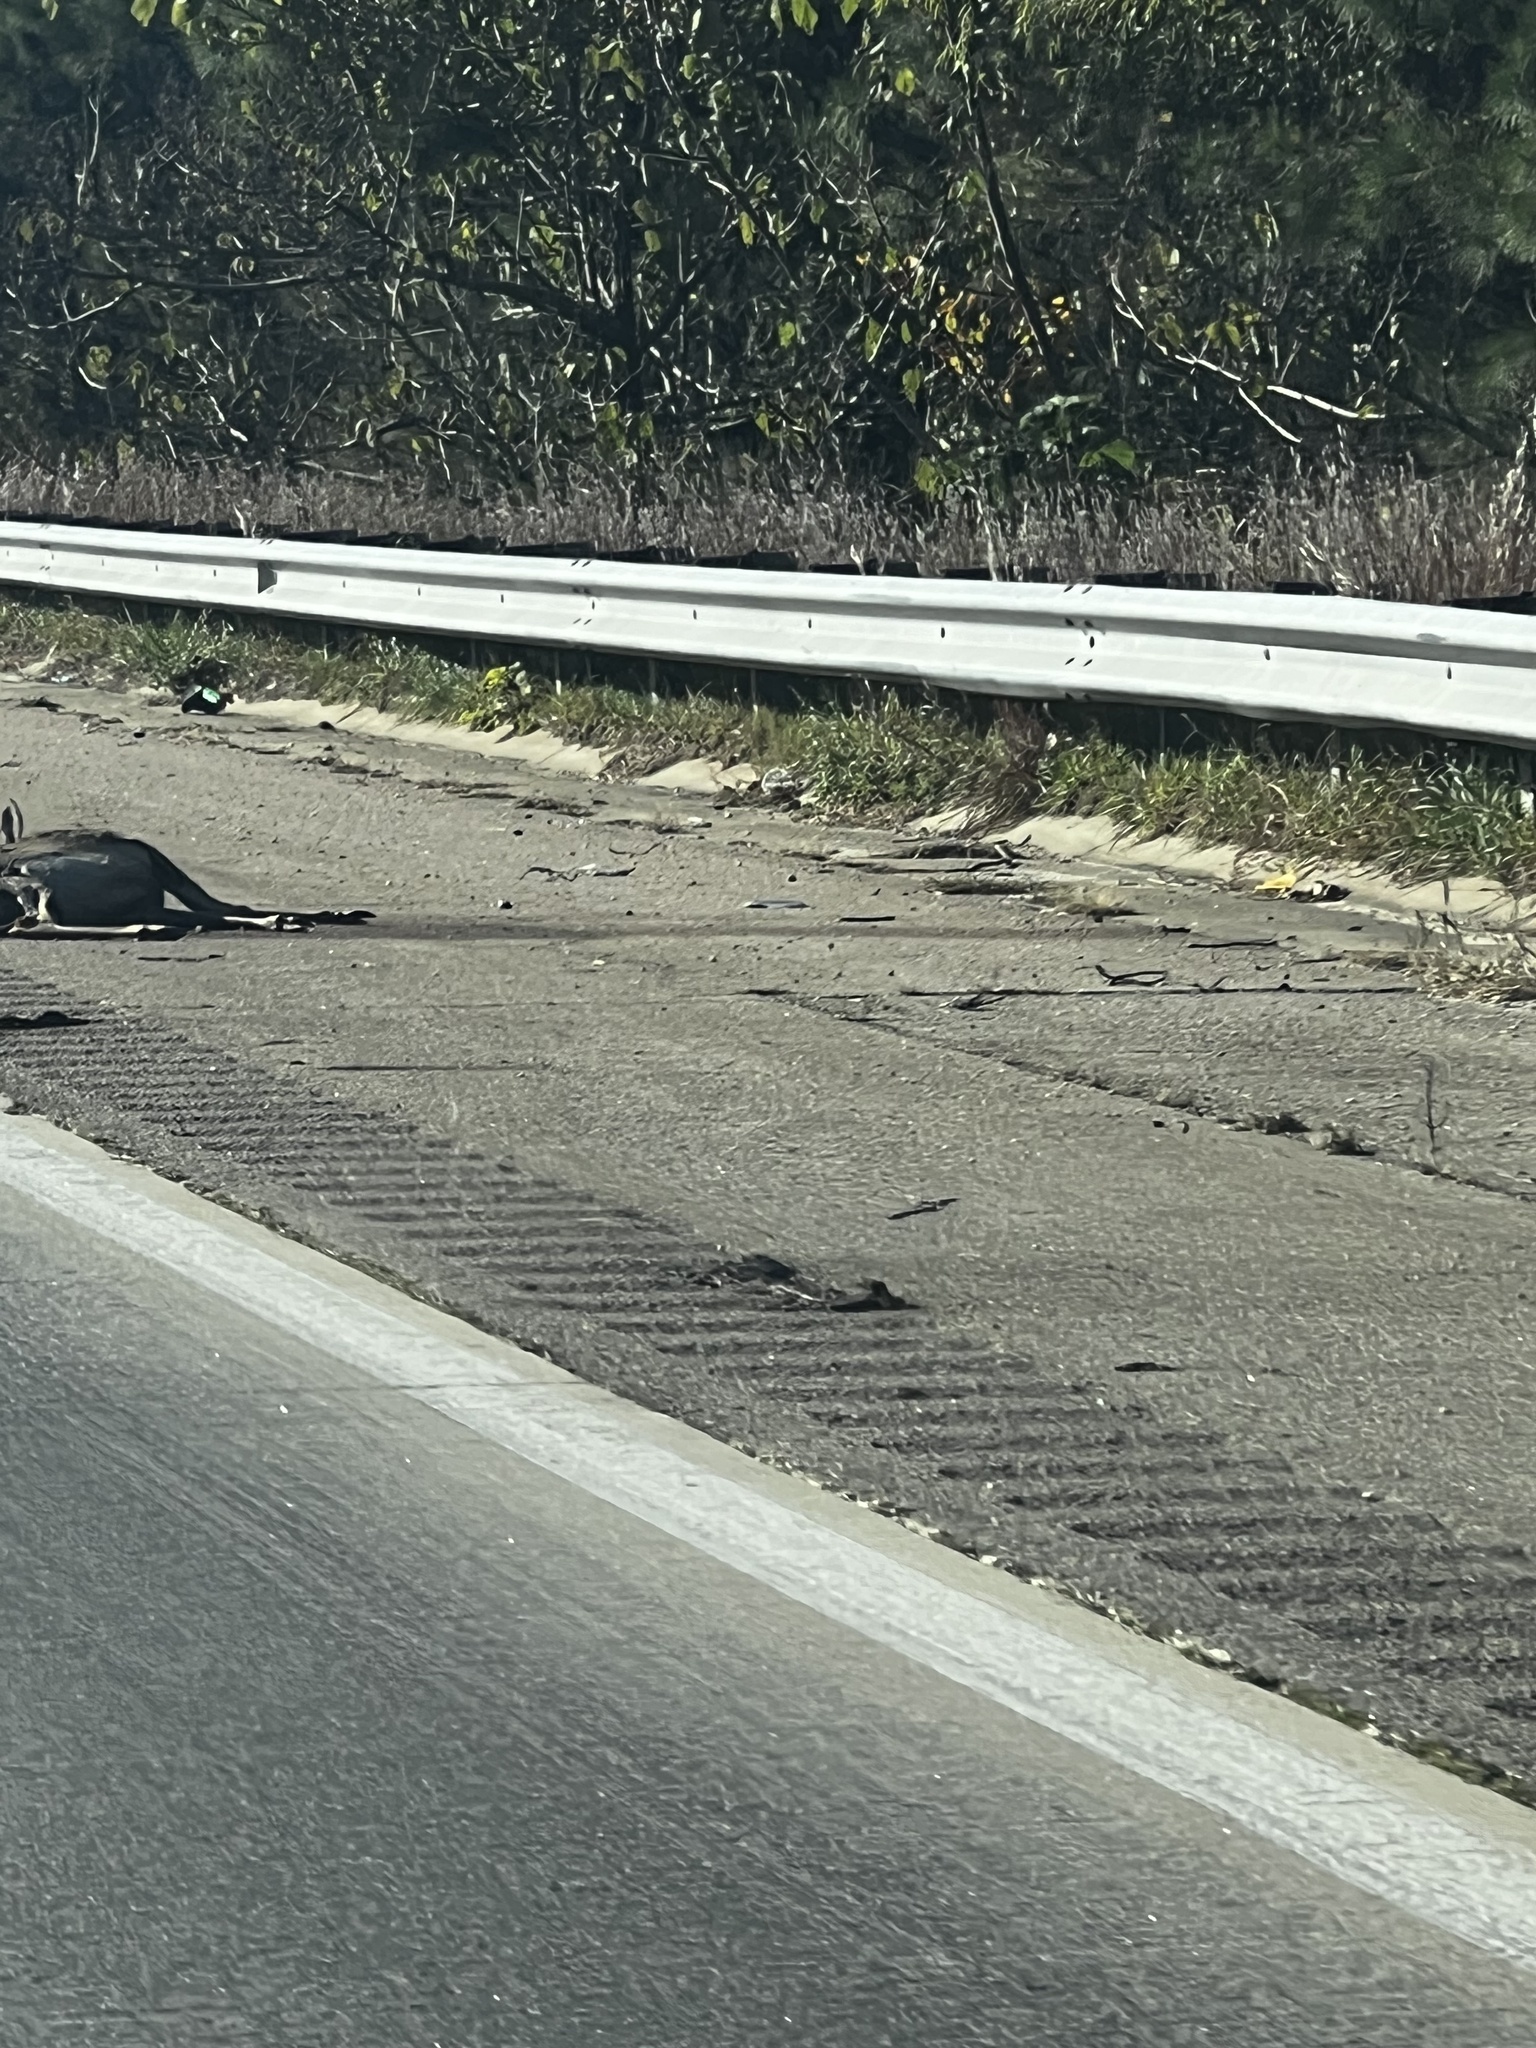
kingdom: Animalia
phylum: Chordata
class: Mammalia
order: Artiodactyla
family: Cervidae
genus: Odocoileus
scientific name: Odocoileus virginianus
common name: White-tailed deer
